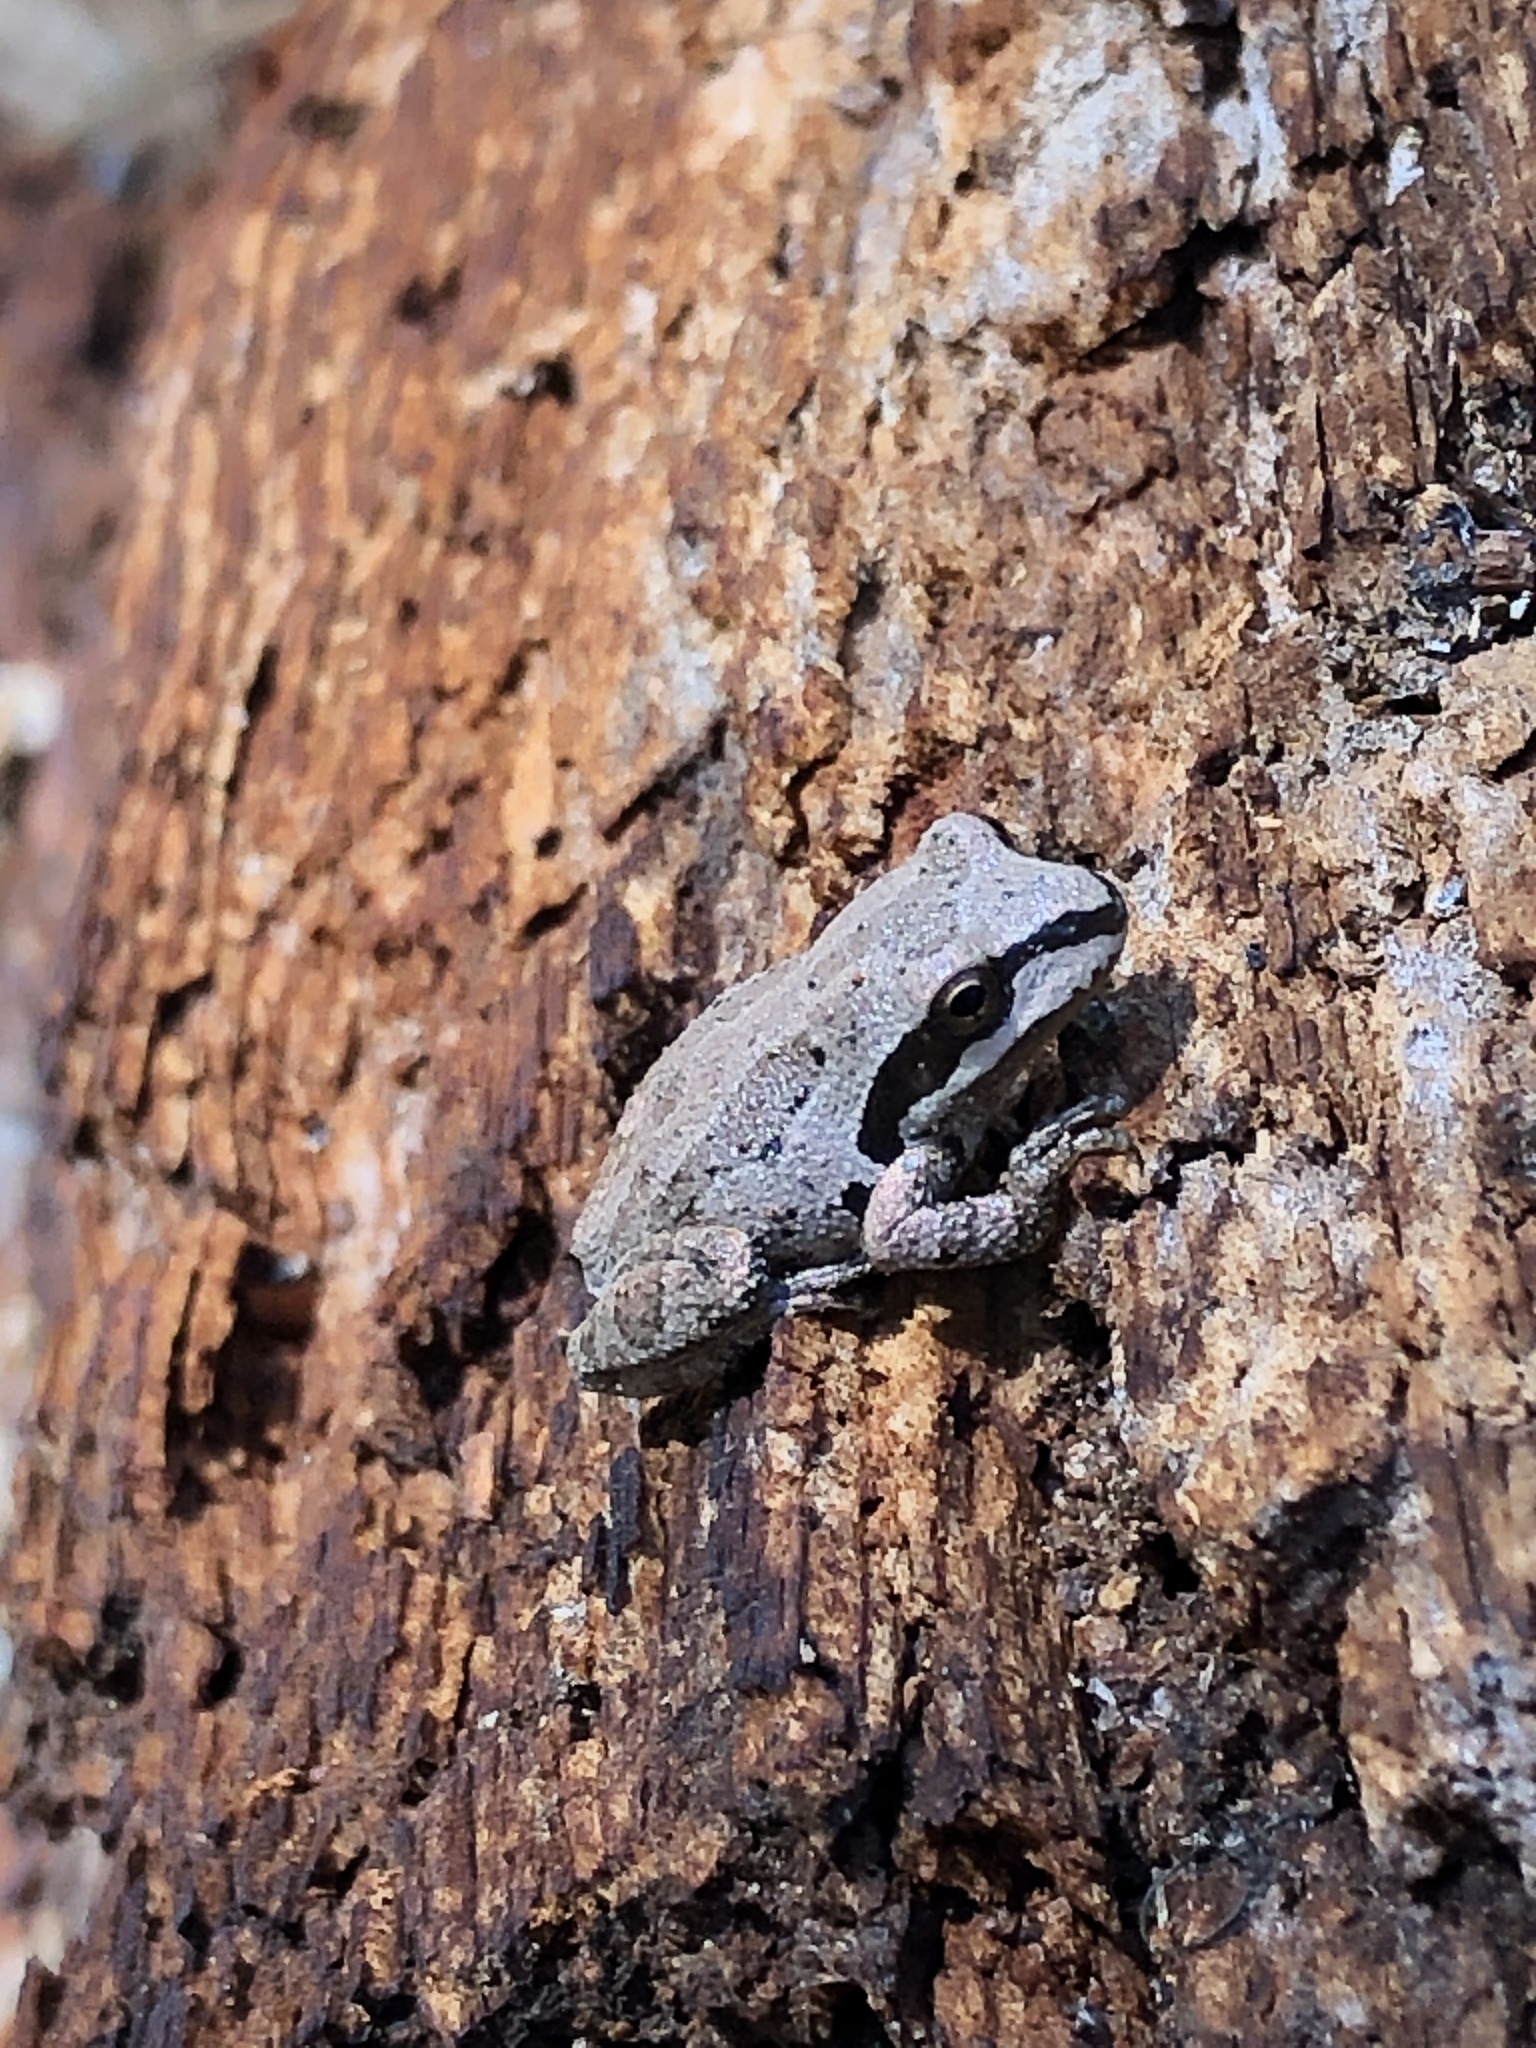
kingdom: Animalia
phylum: Chordata
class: Amphibia
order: Anura
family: Hylidae
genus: Pseudacris
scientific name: Pseudacris regilla
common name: Pacific chorus frog
